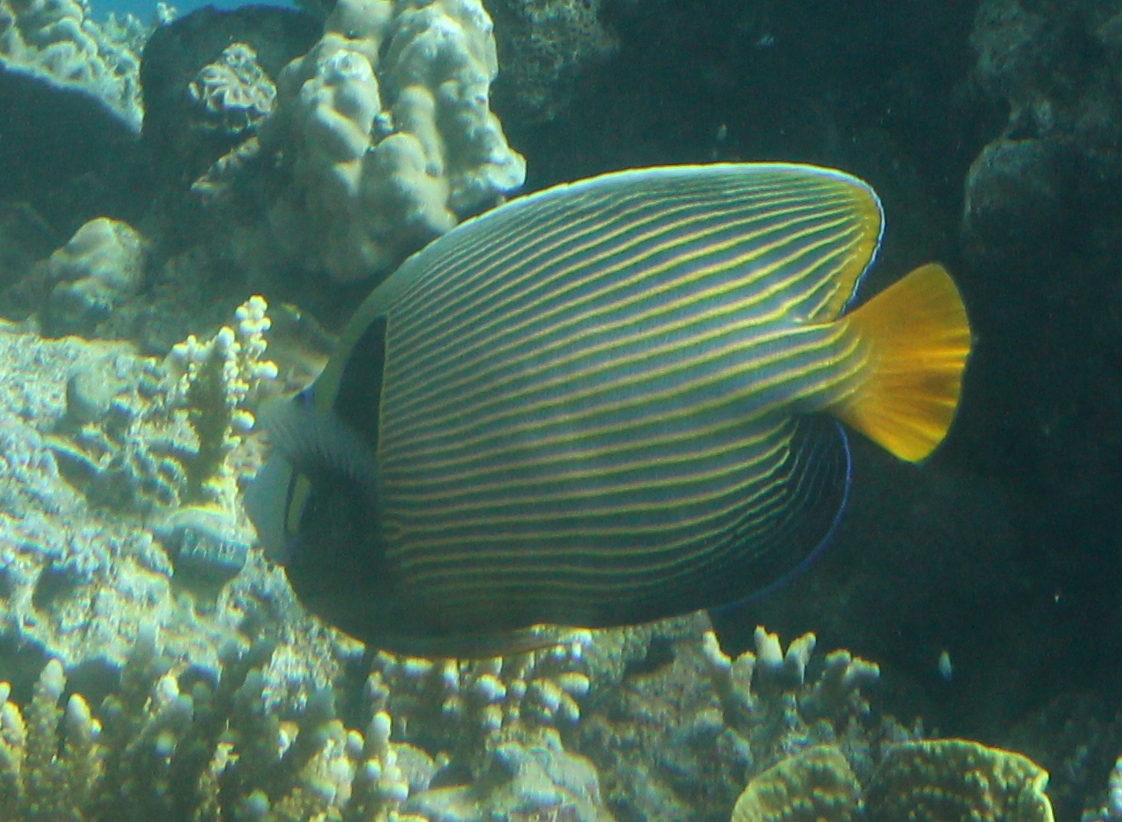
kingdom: Animalia
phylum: Chordata
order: Perciformes
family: Pomacanthidae
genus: Pomacanthus
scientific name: Pomacanthus imperator
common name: Emperor angelfish
